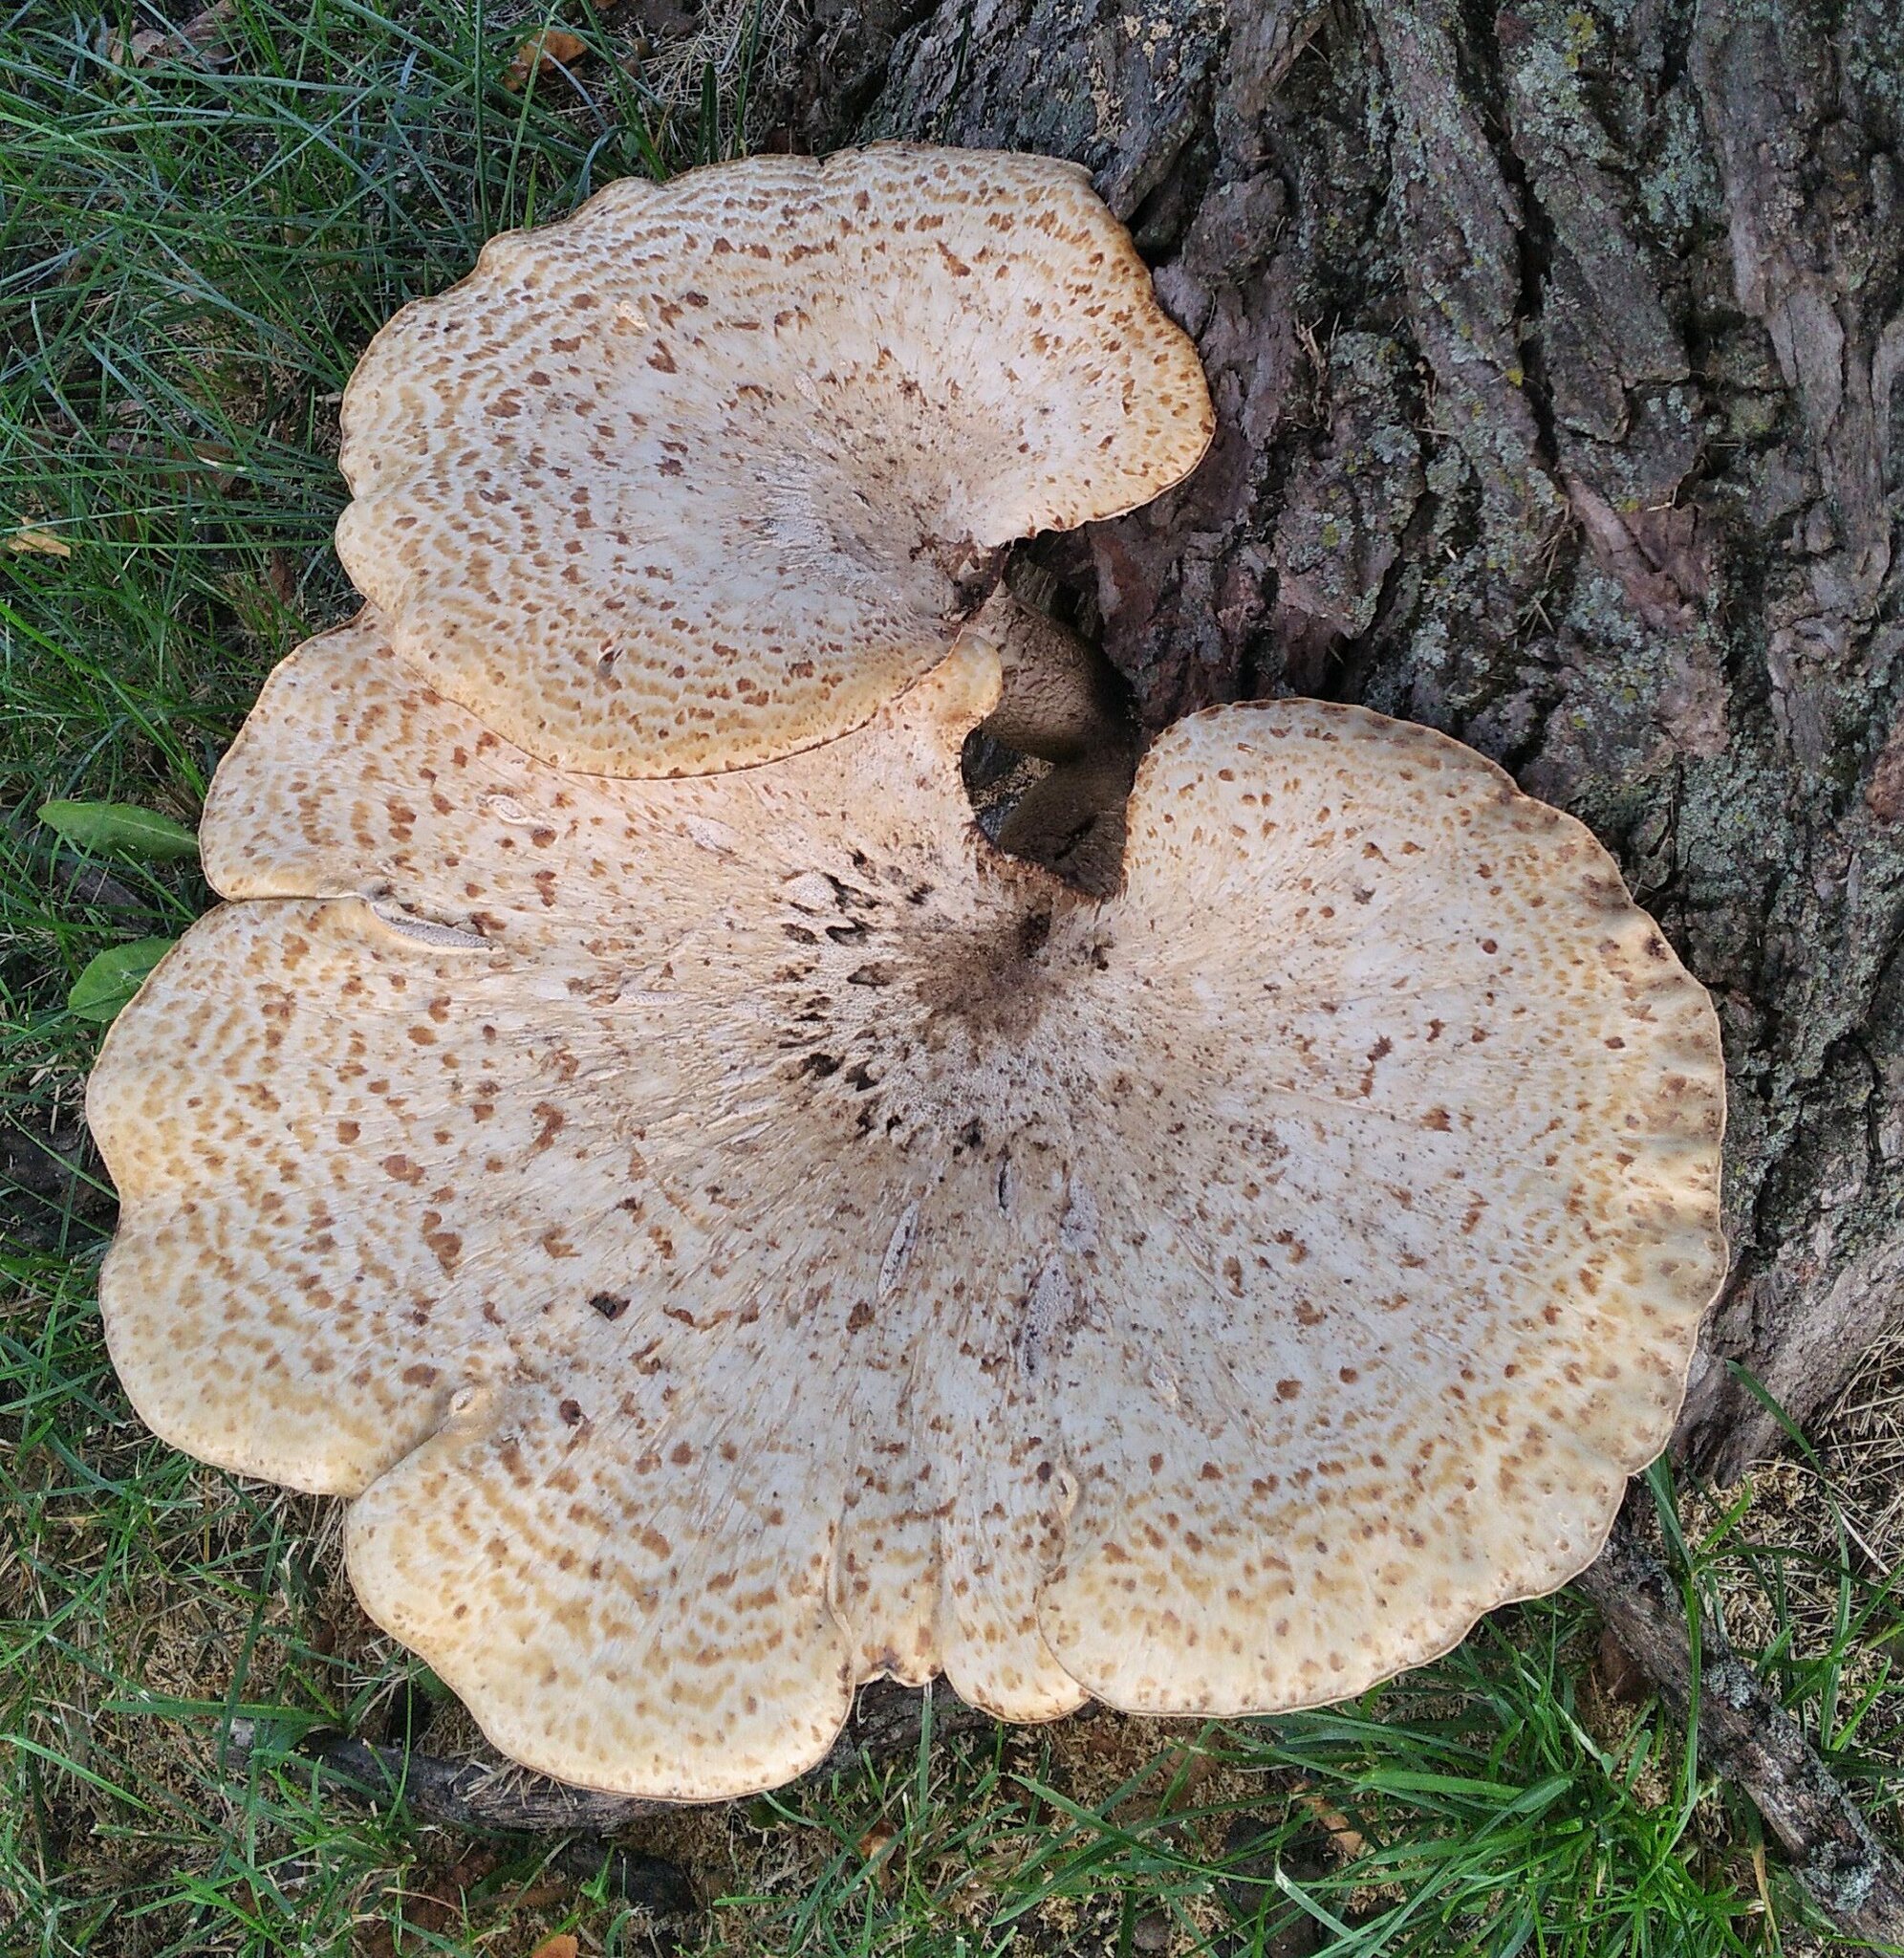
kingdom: Fungi
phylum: Basidiomycota
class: Agaricomycetes
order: Polyporales
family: Polyporaceae
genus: Cerioporus
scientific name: Cerioporus squamosus
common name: Dryad's saddle
